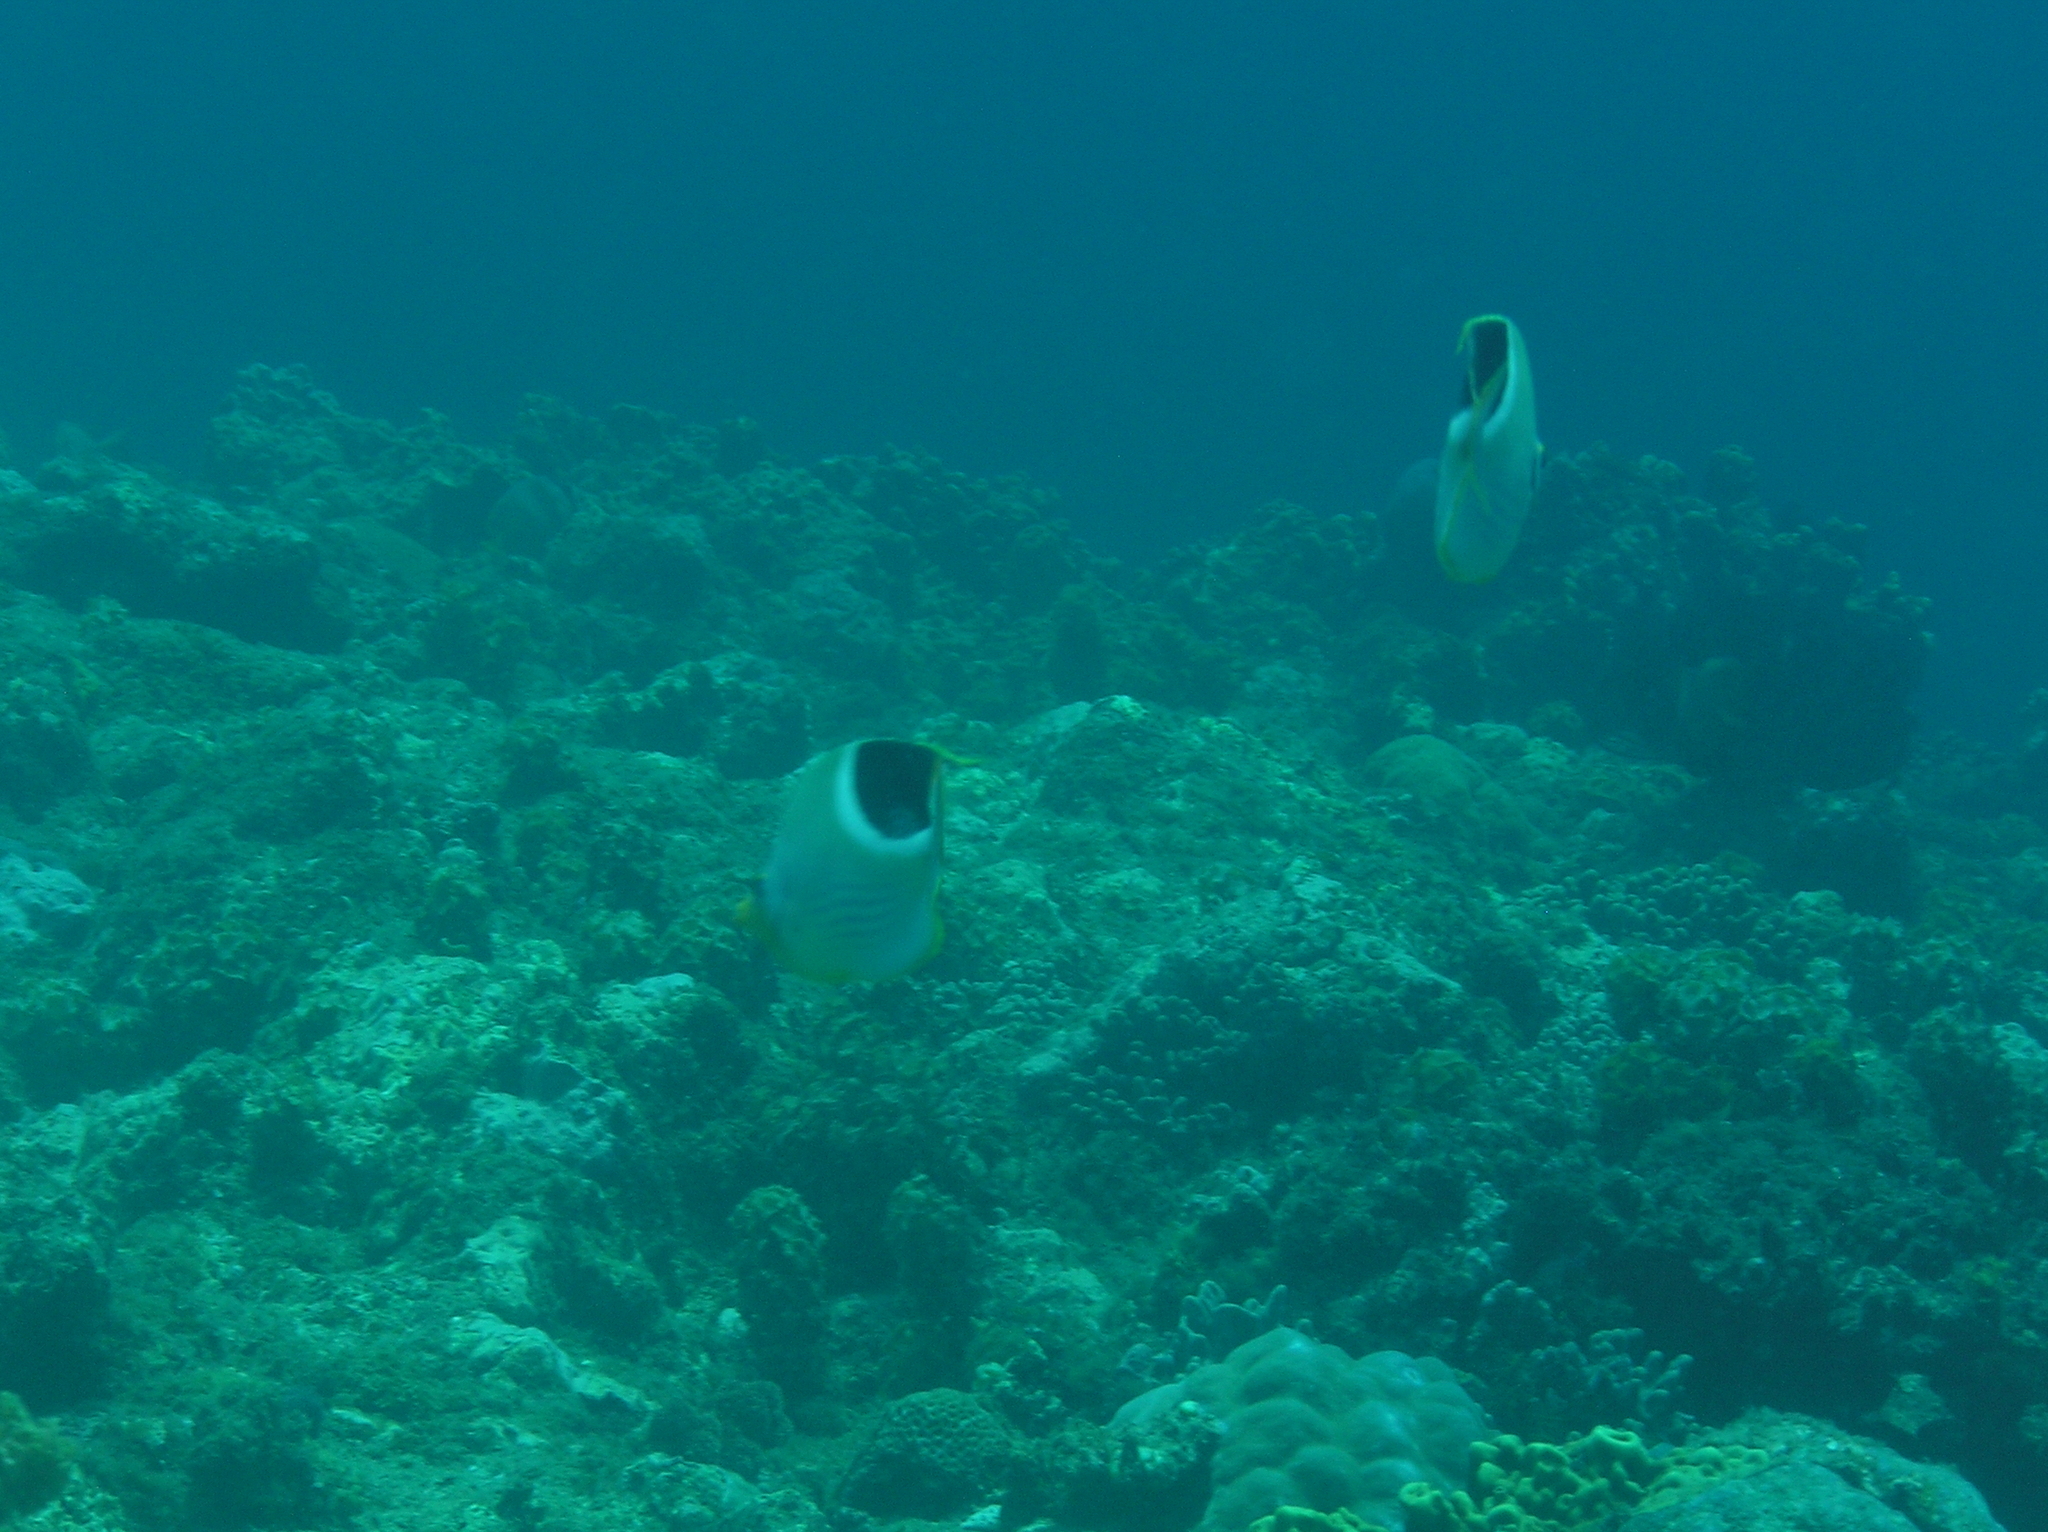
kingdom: Animalia
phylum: Chordata
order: Perciformes
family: Chaetodontidae
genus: Chaetodon
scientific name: Chaetodon ephippium
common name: Saddled butterflyfish
